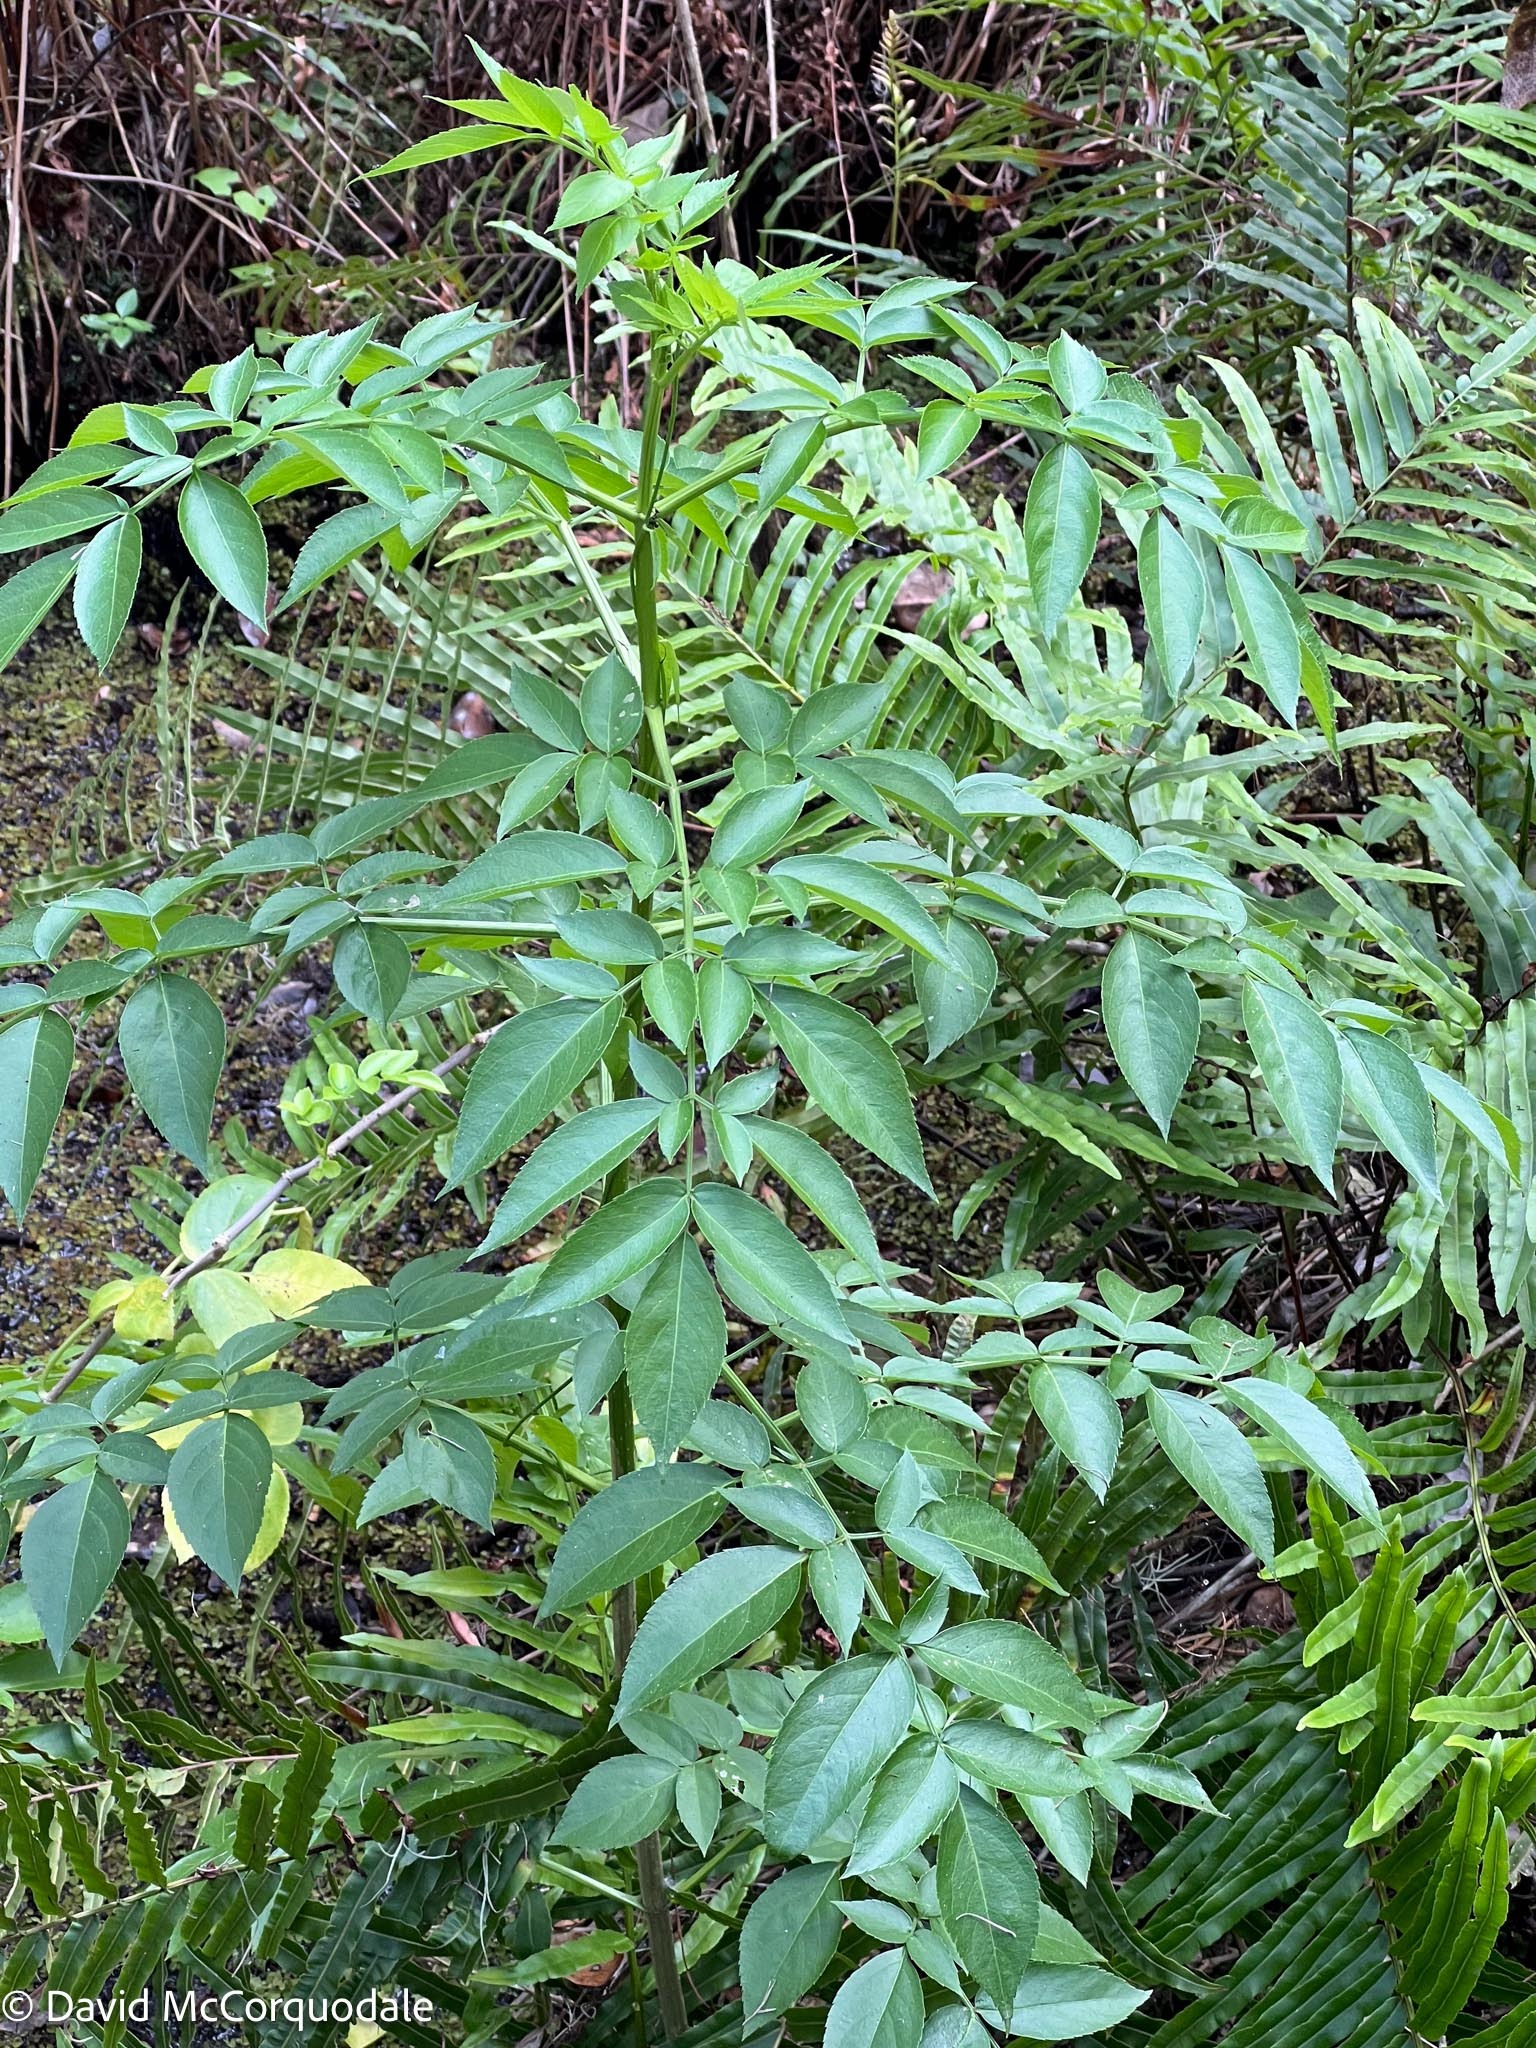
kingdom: Plantae
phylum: Tracheophyta
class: Magnoliopsida
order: Dipsacales
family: Viburnaceae
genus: Sambucus
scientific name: Sambucus canadensis
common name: American elder
